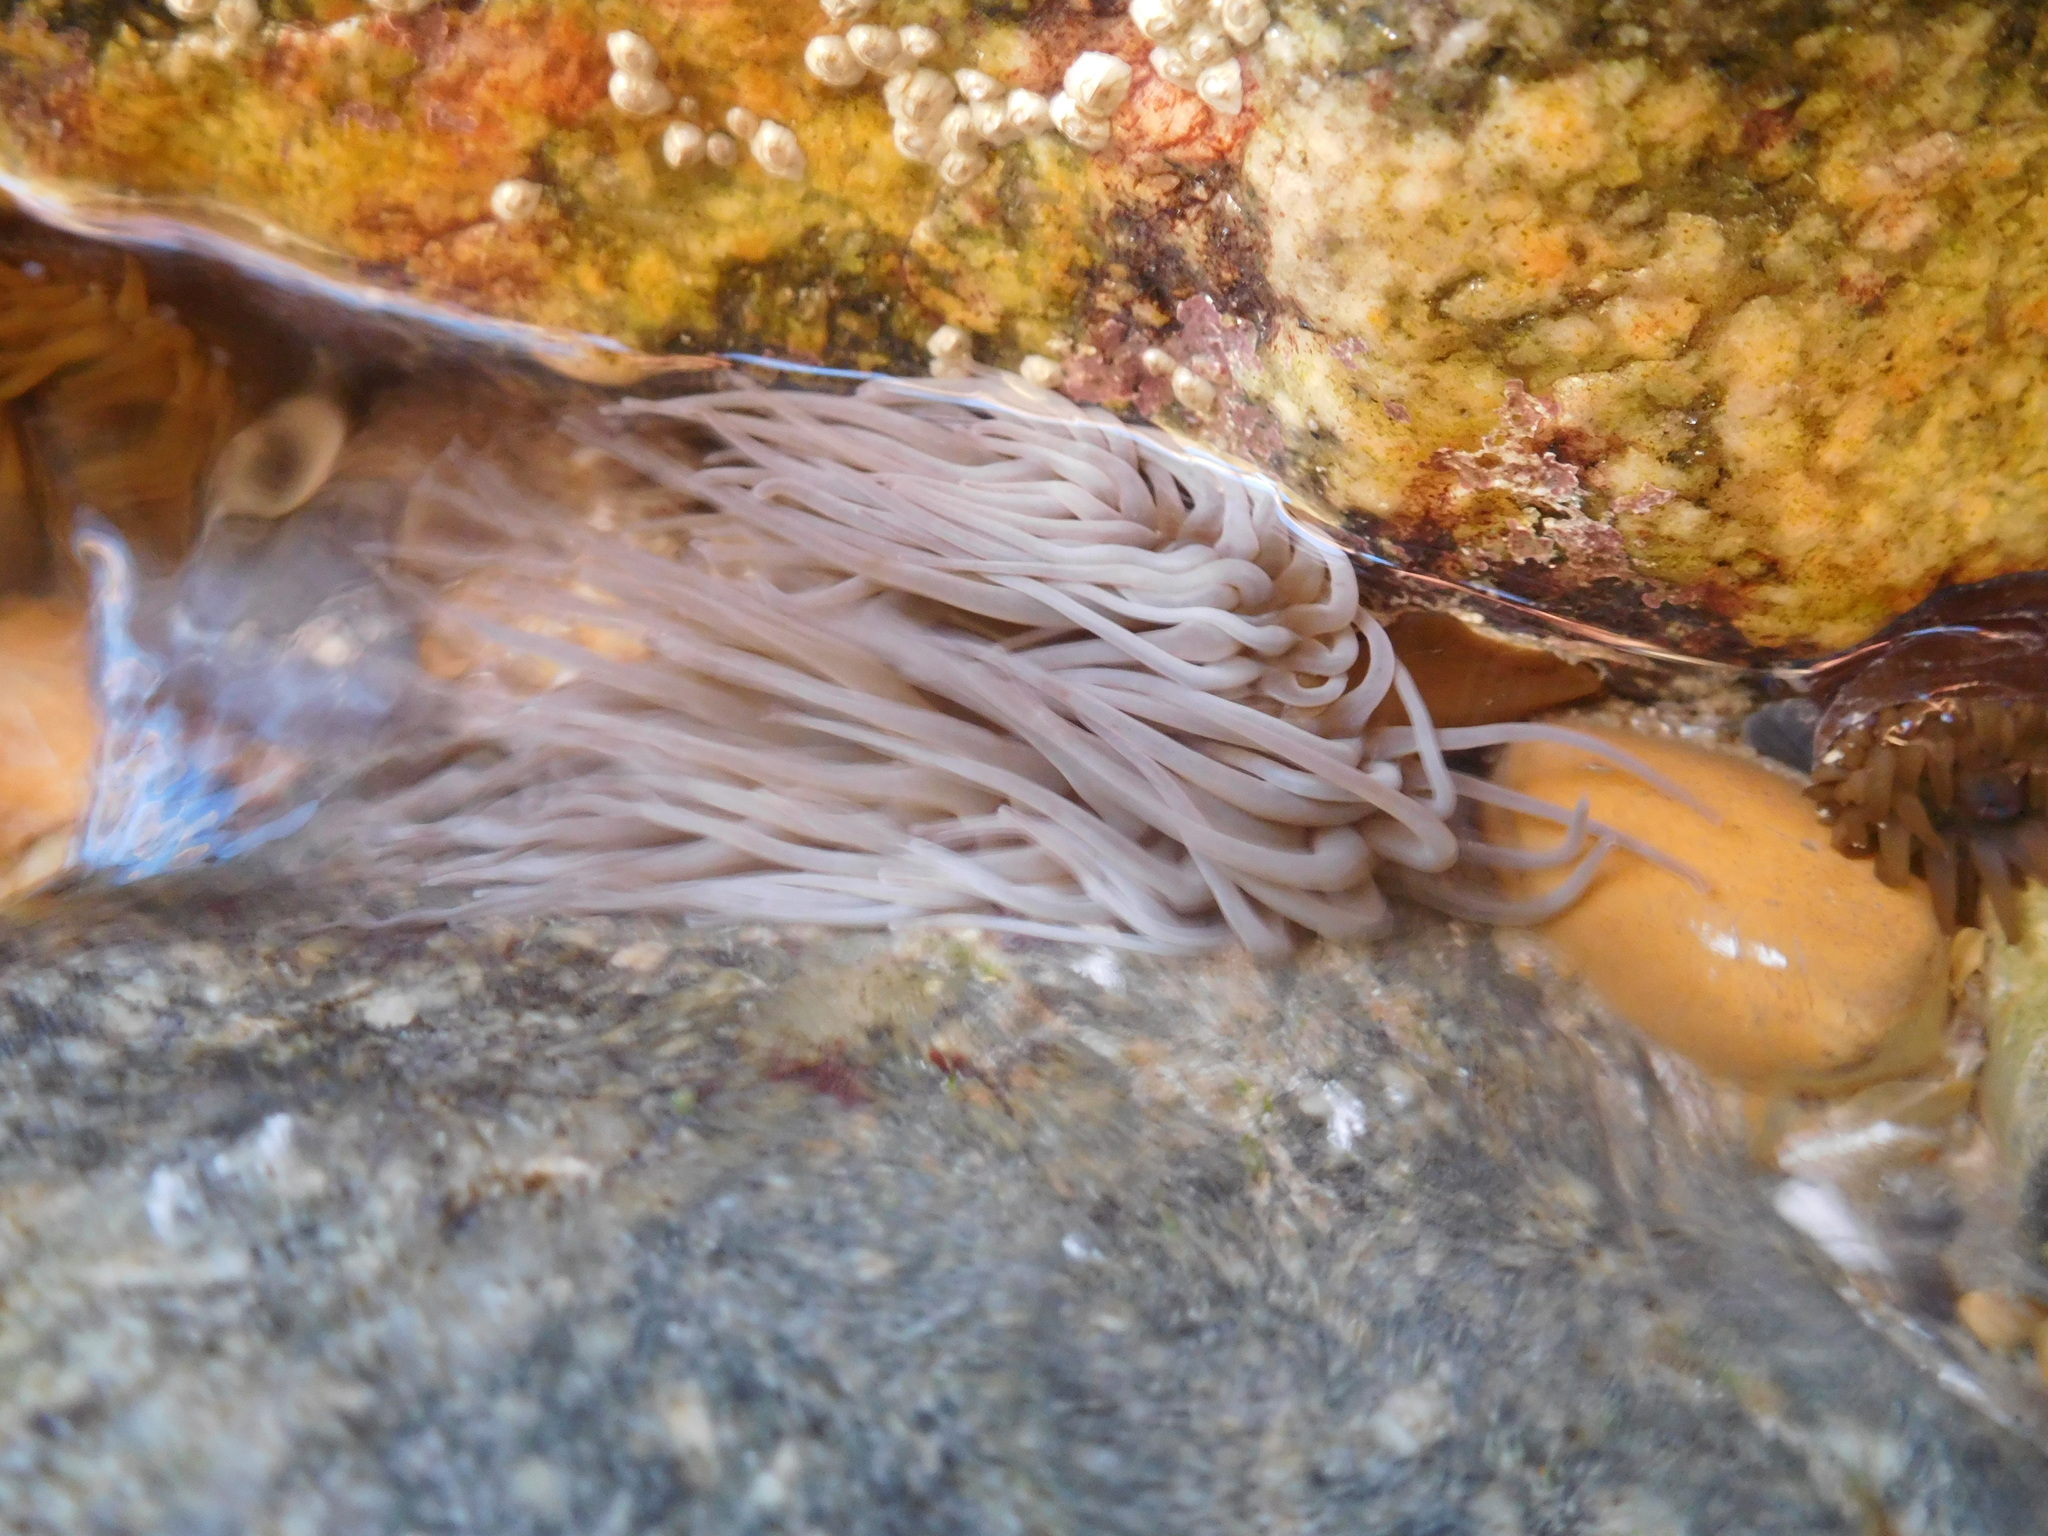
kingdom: Animalia
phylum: Cnidaria
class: Anthozoa
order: Actiniaria
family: Actiniidae
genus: Anemonia
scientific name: Anemonia viridis
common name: Snakelocks anemone
